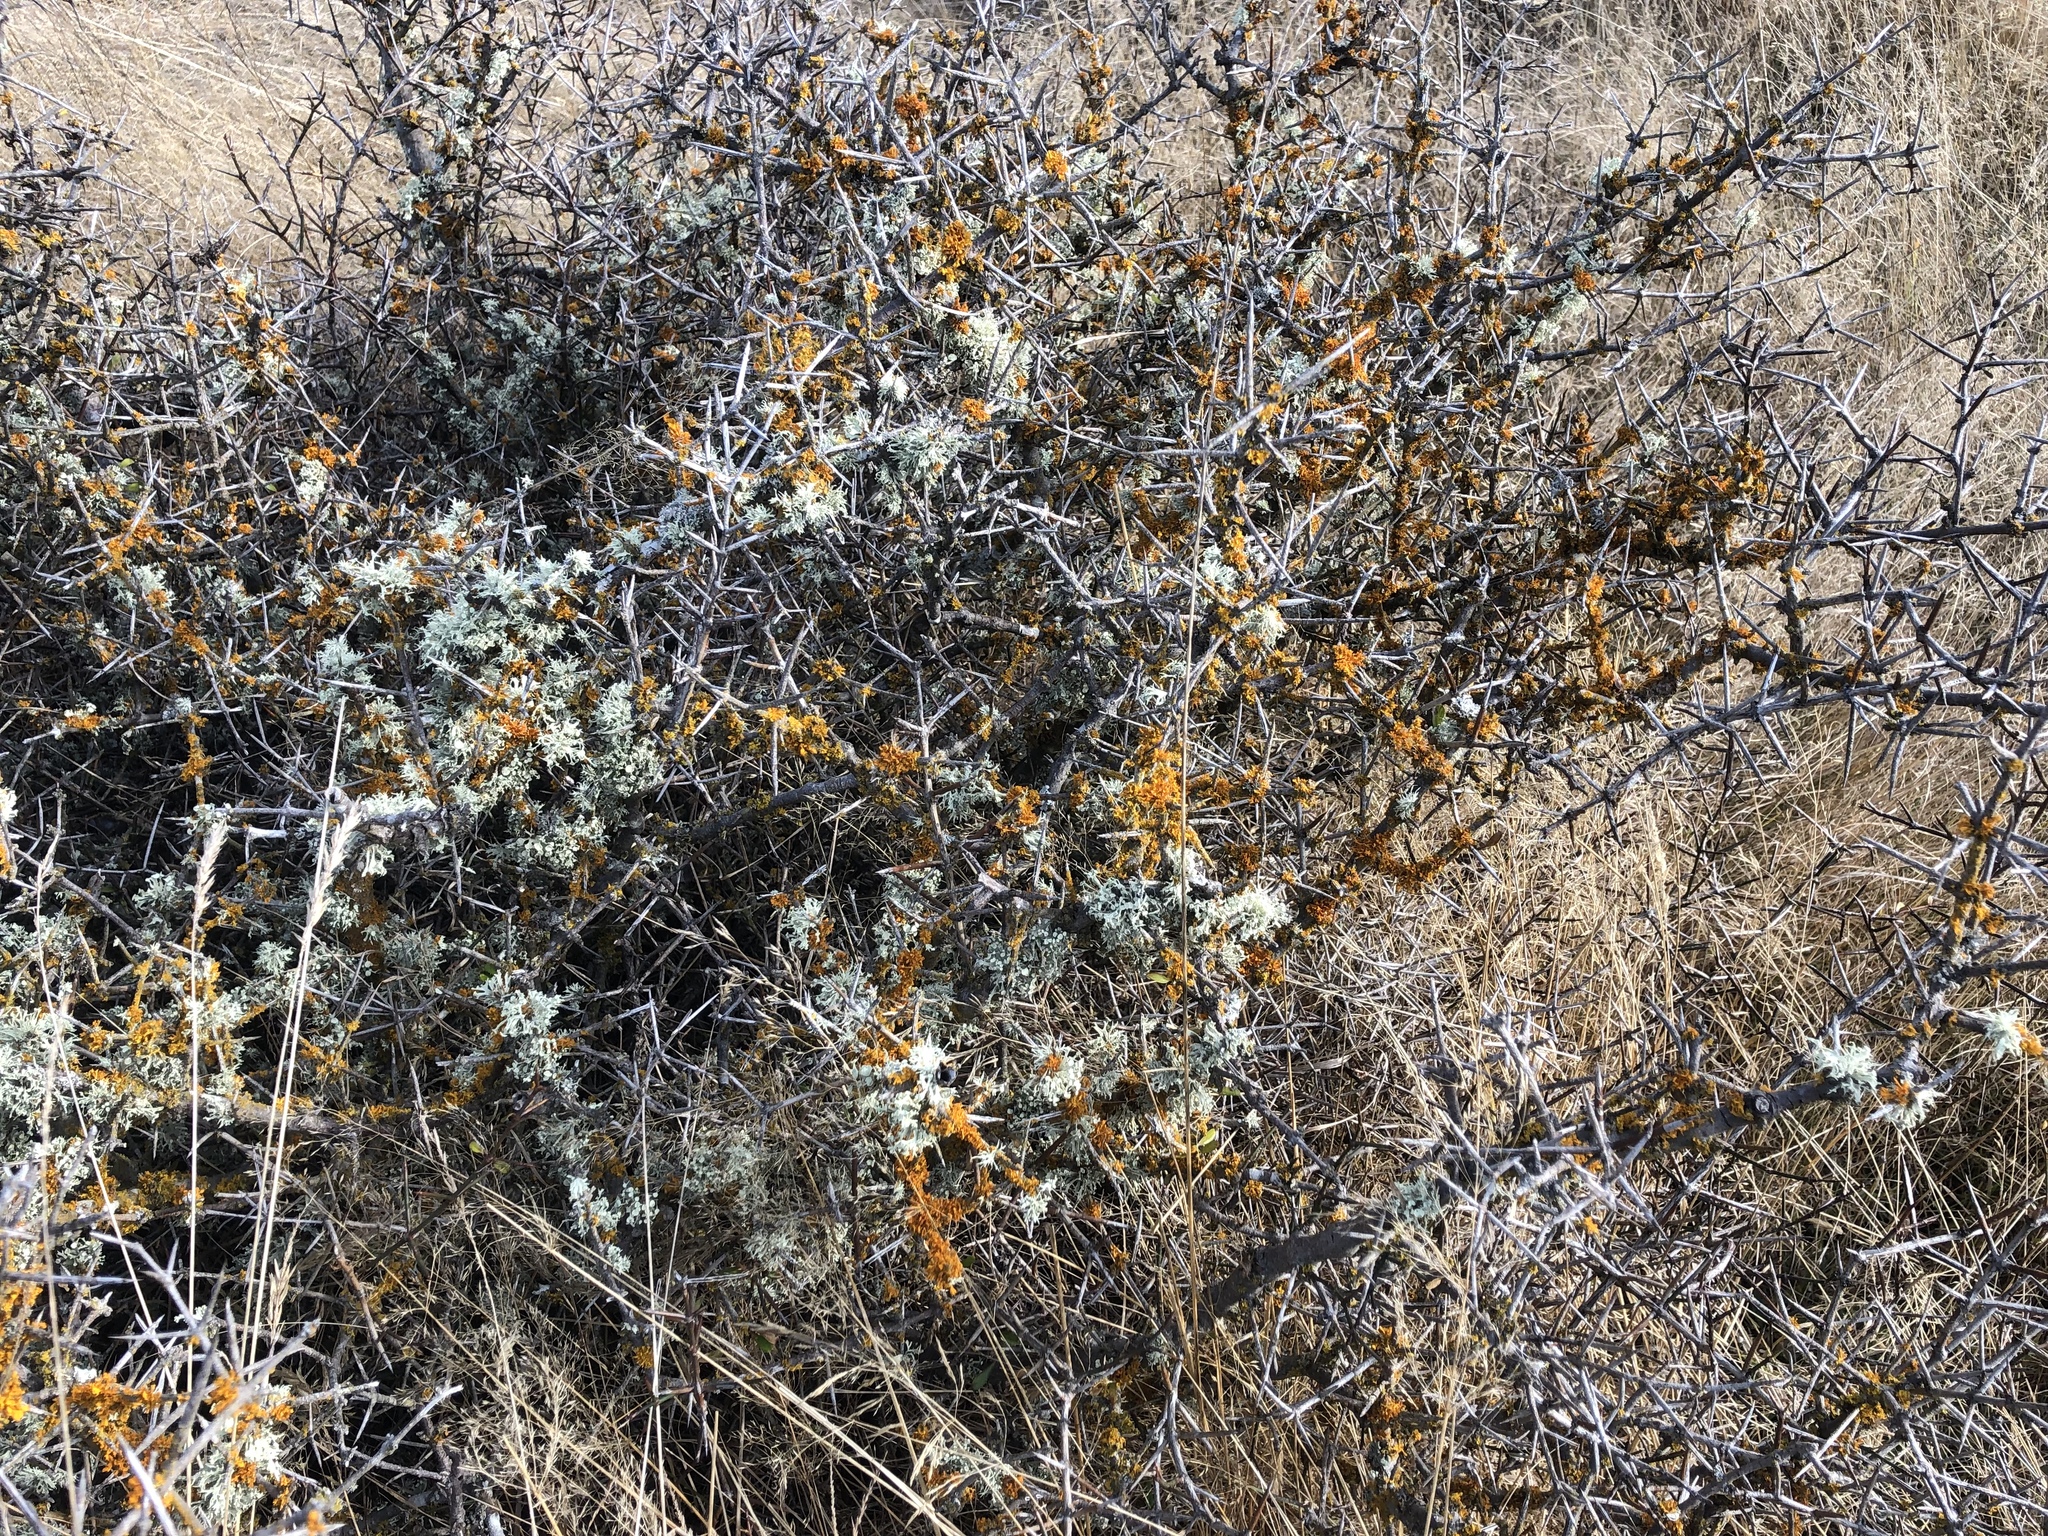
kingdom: Plantae
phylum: Tracheophyta
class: Magnoliopsida
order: Rosales
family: Rhamnaceae
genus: Discaria
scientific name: Discaria toumatou
